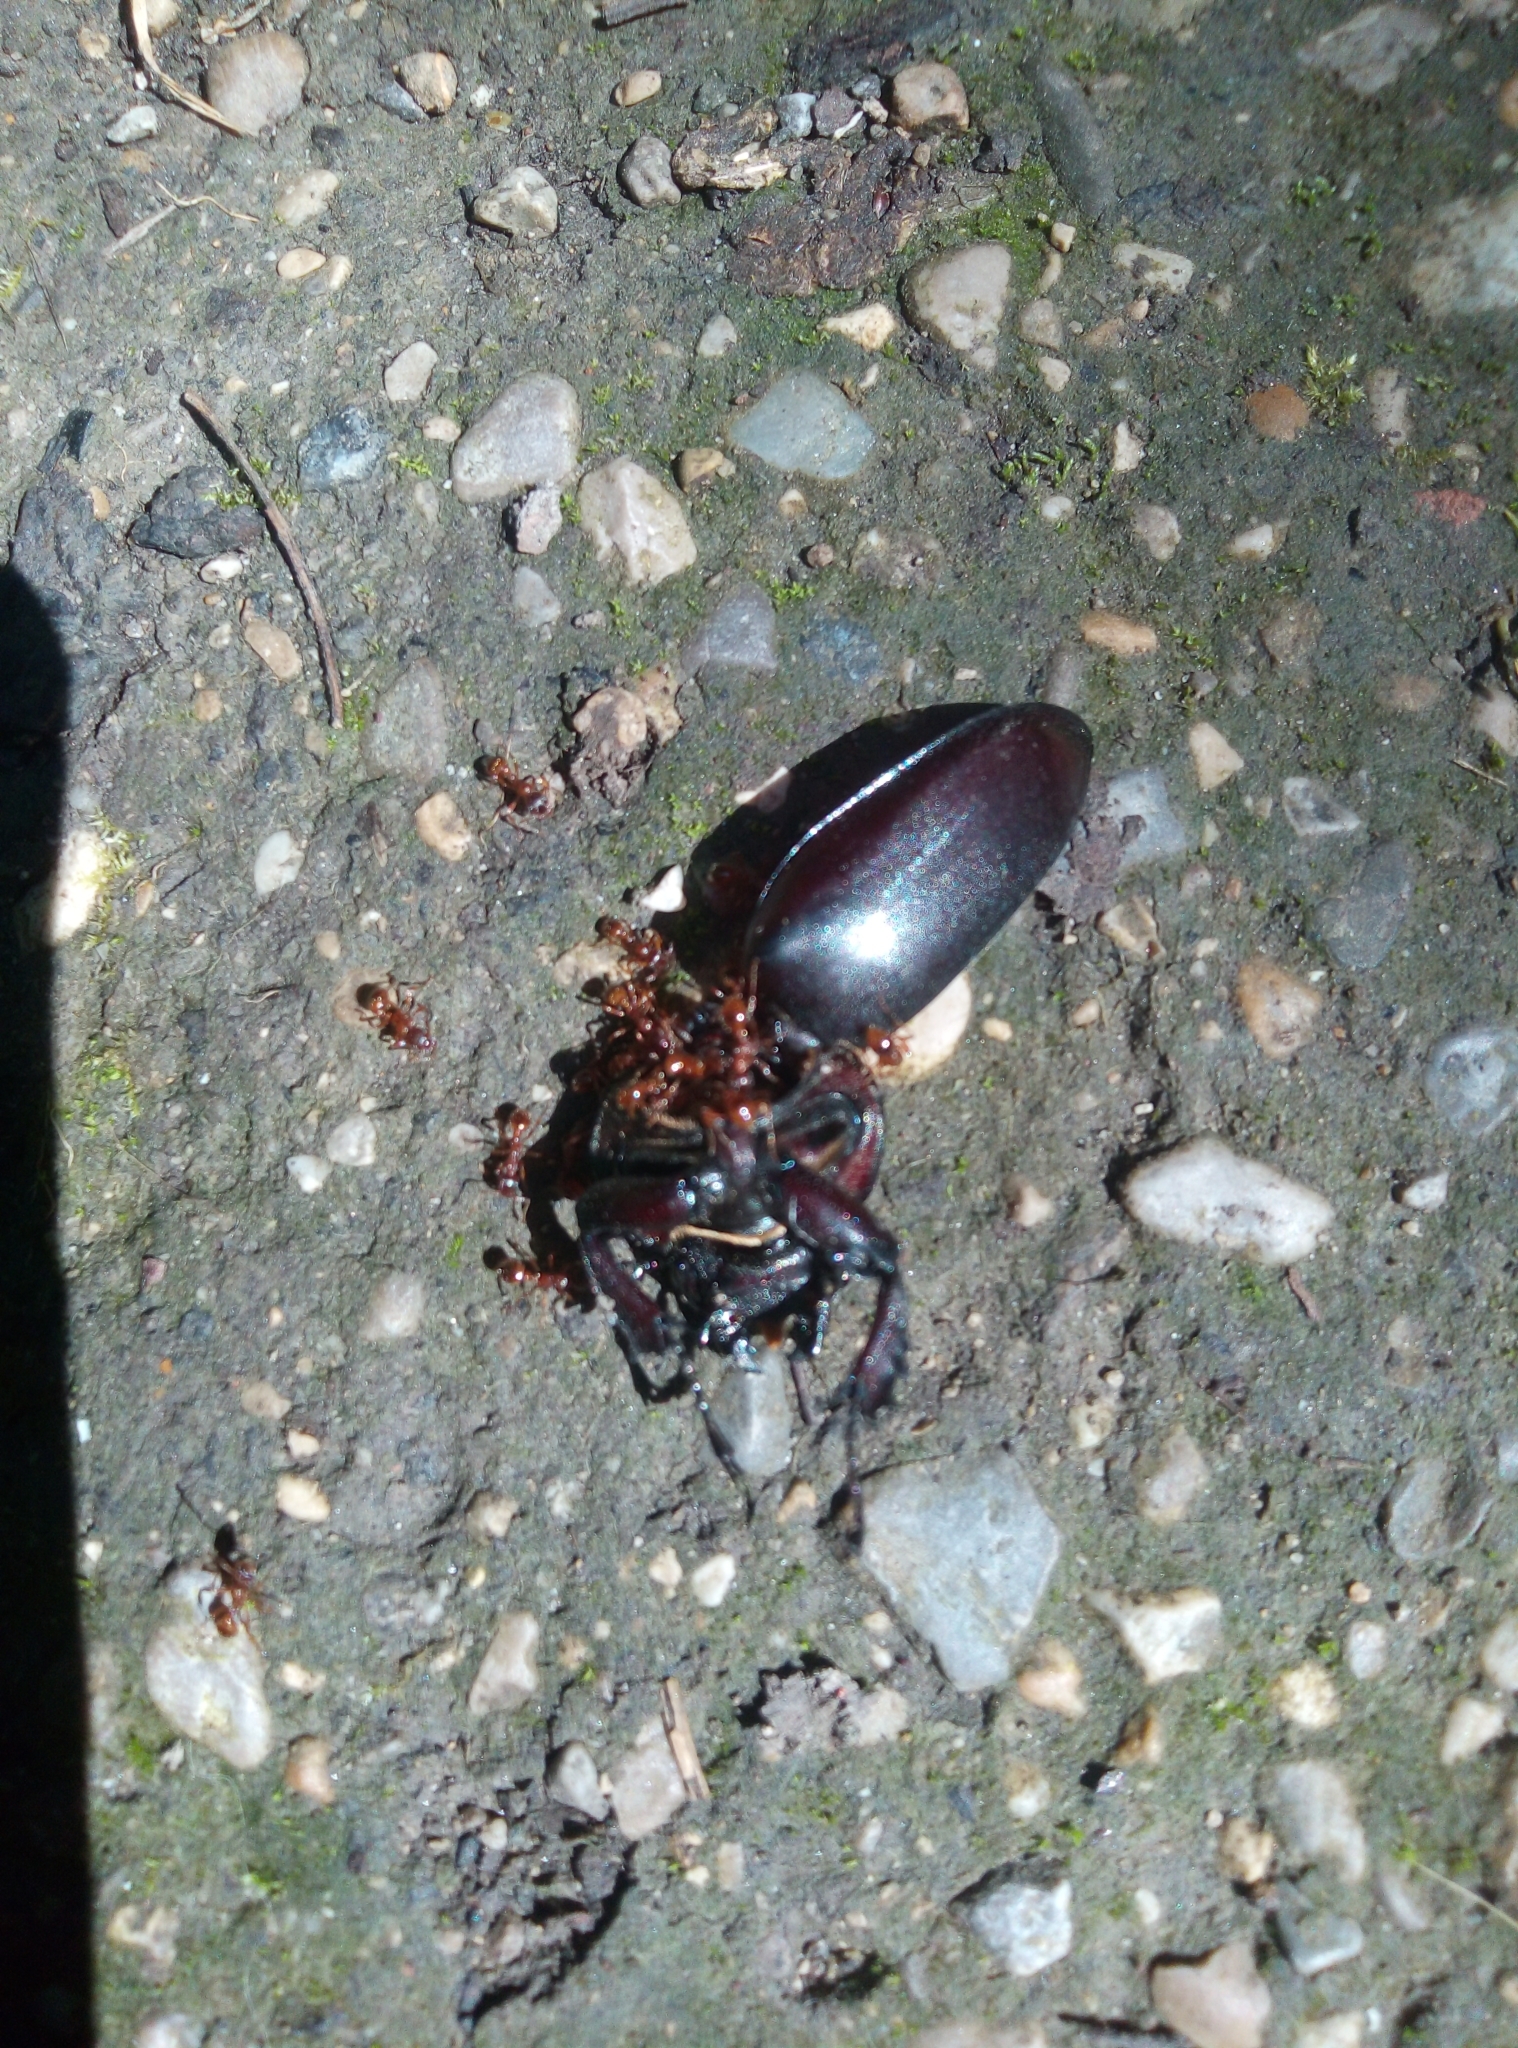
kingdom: Animalia
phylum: Arthropoda
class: Insecta
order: Coleoptera
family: Lucanidae
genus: Lucanus
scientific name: Lucanus cervus
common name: Stag beetle
